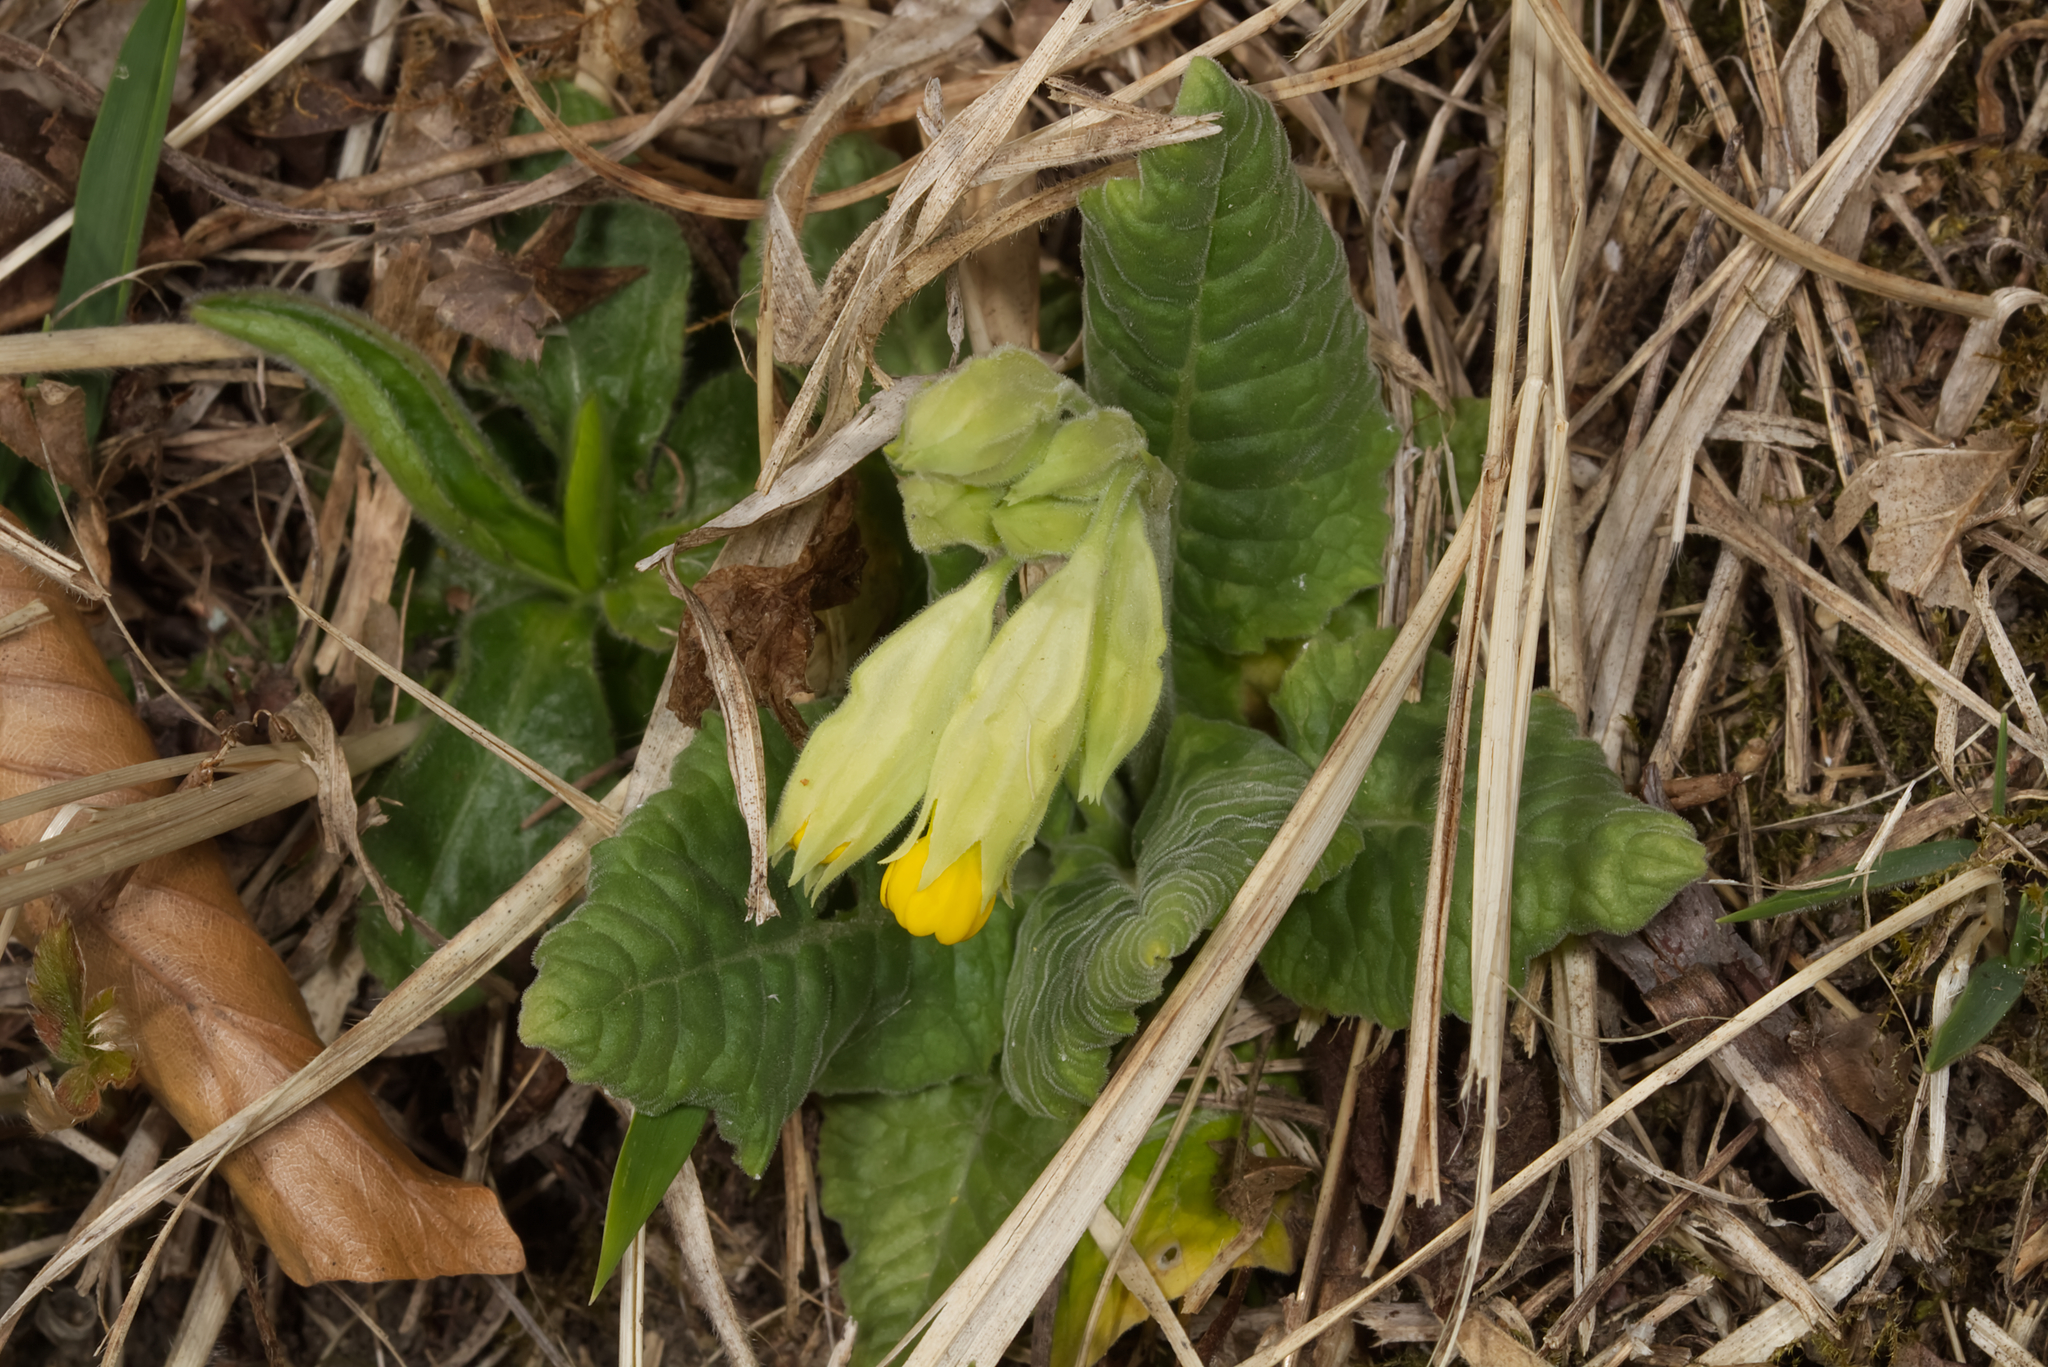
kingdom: Plantae
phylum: Tracheophyta
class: Magnoliopsida
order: Ericales
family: Primulaceae
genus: Primula
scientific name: Primula veris
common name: Cowslip
